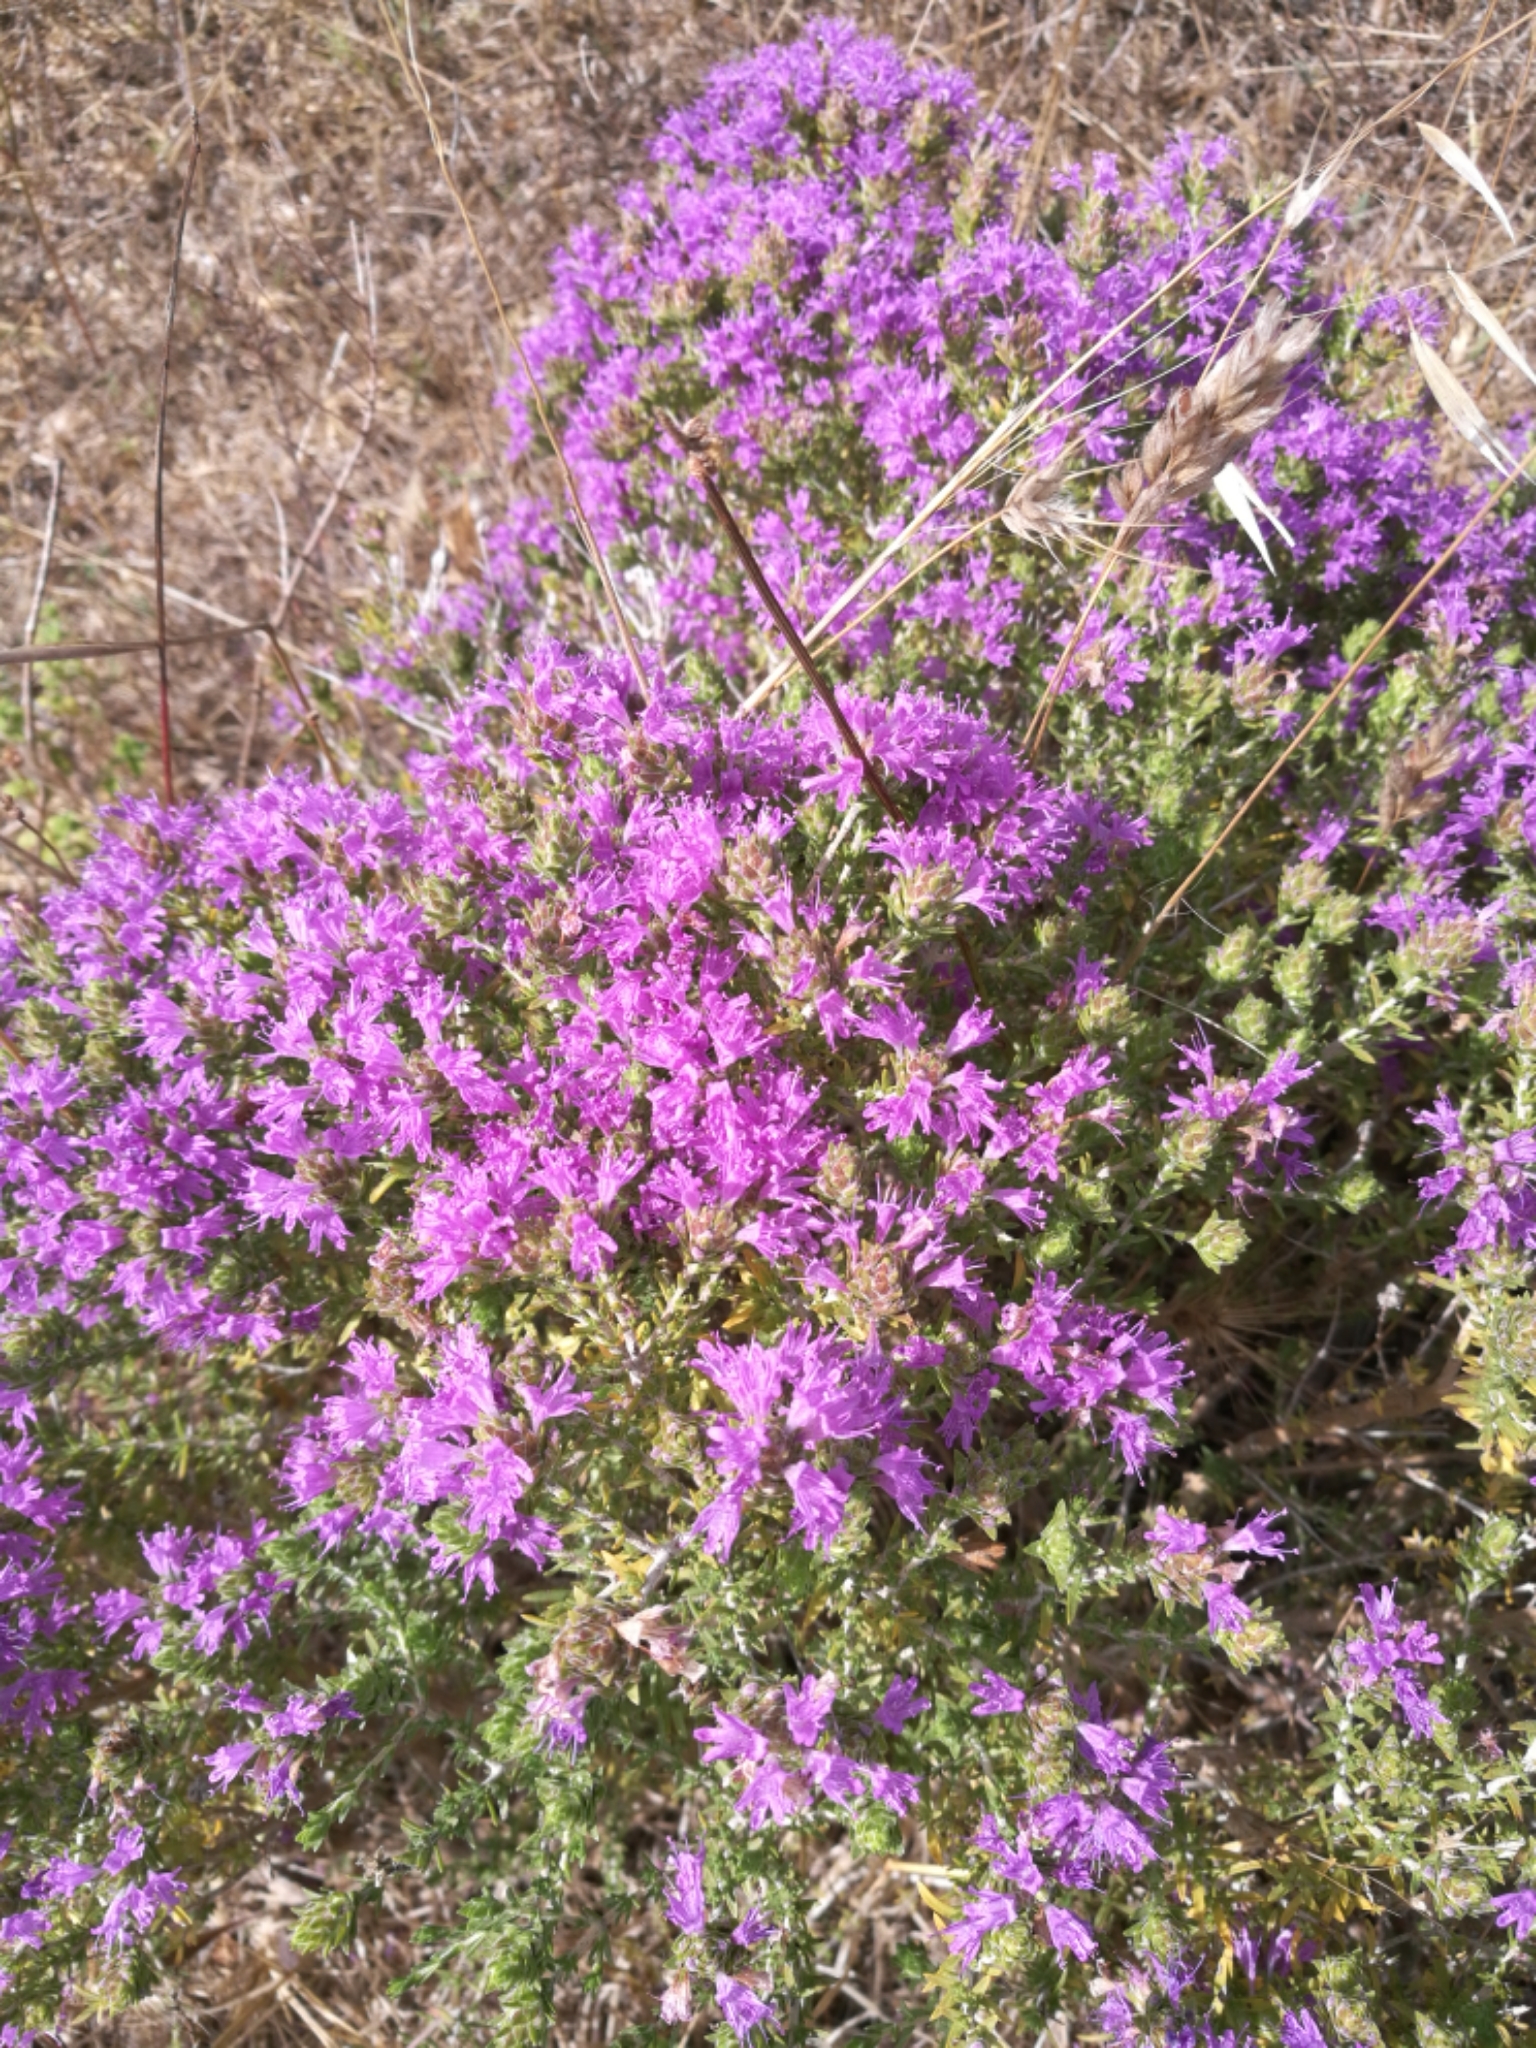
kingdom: Plantae
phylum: Tracheophyta
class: Magnoliopsida
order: Lamiales
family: Lamiaceae
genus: Thymbra
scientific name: Thymbra capitata
